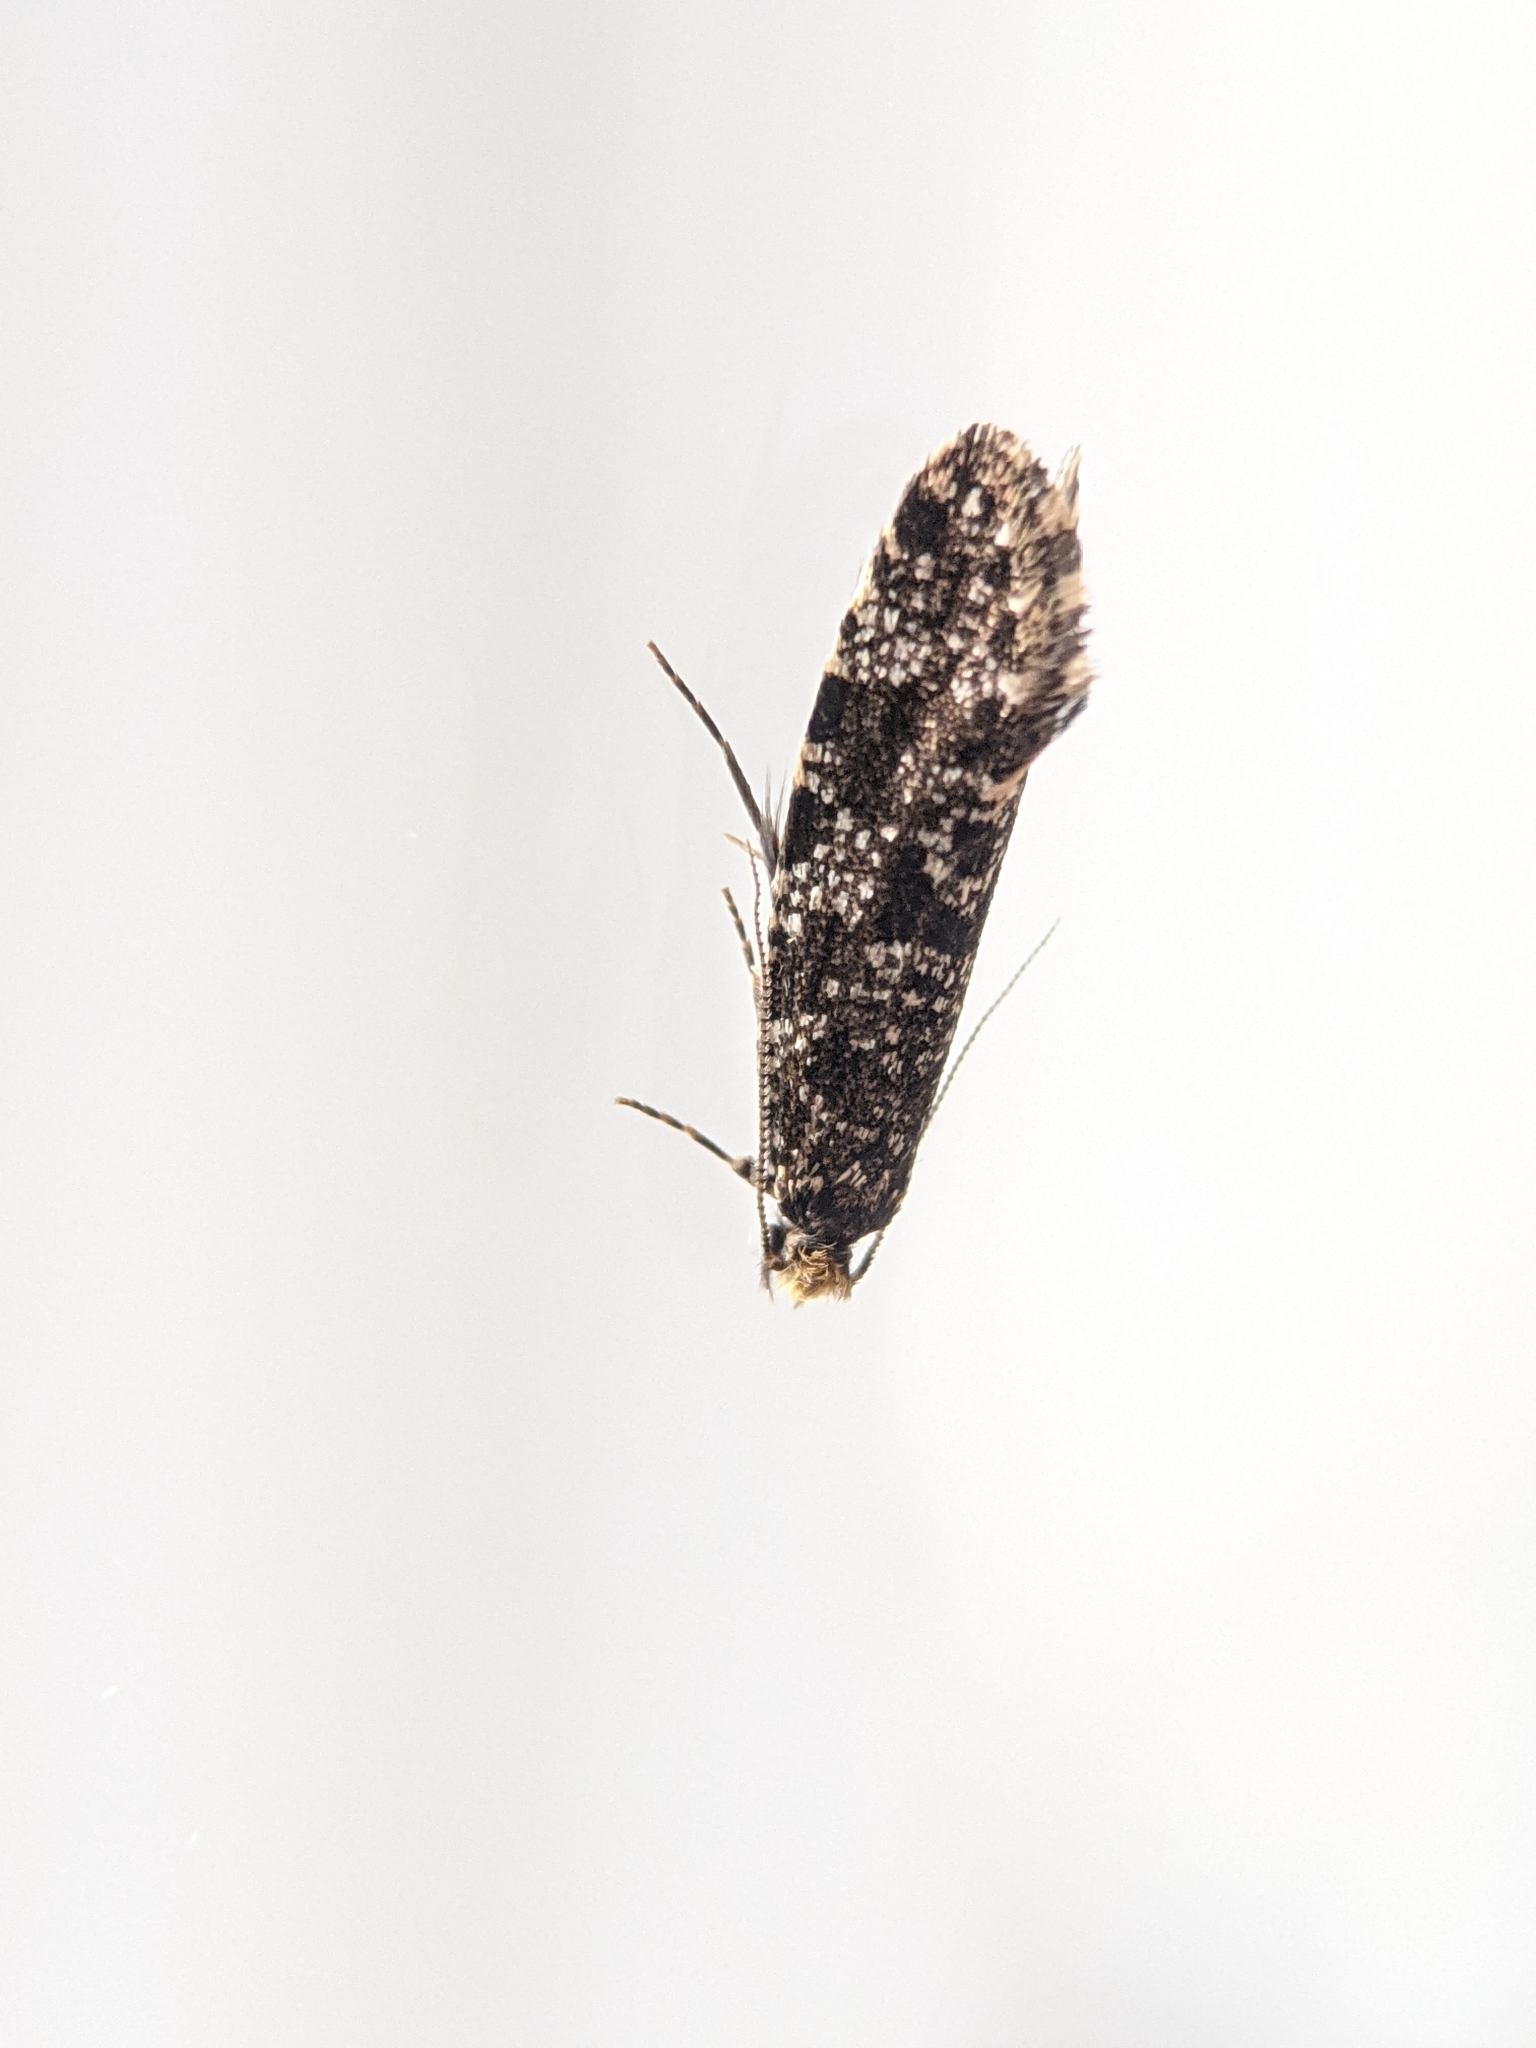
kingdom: Animalia
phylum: Arthropoda
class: Insecta
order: Lepidoptera
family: Tineidae
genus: Triaxomera
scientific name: Triaxomera parasitella
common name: Large brindled clothes
